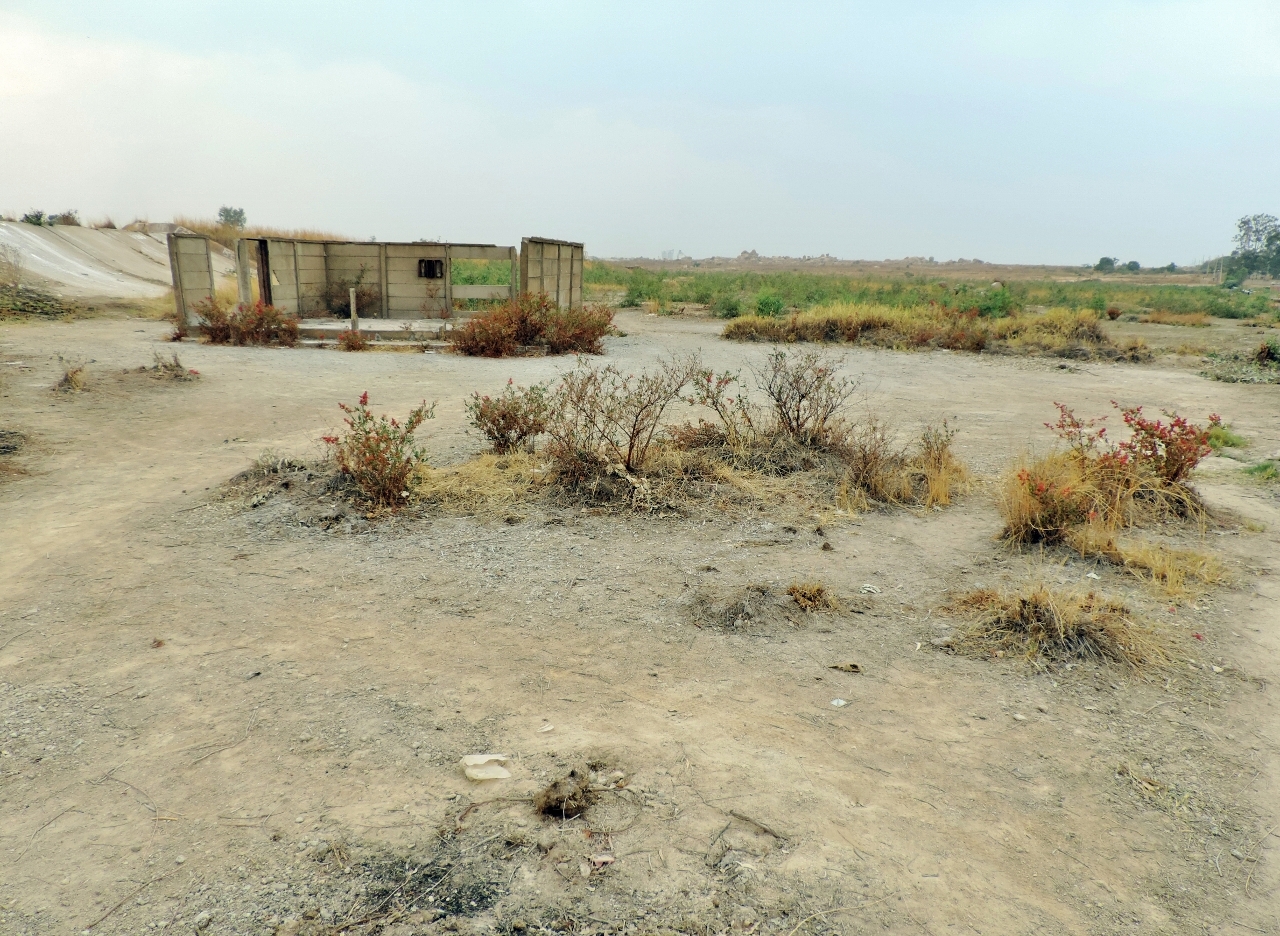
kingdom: Plantae
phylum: Tracheophyta
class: Magnoliopsida
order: Caryophyllales
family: Polygonaceae
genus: Rumex
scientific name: Rumex usambarensis
